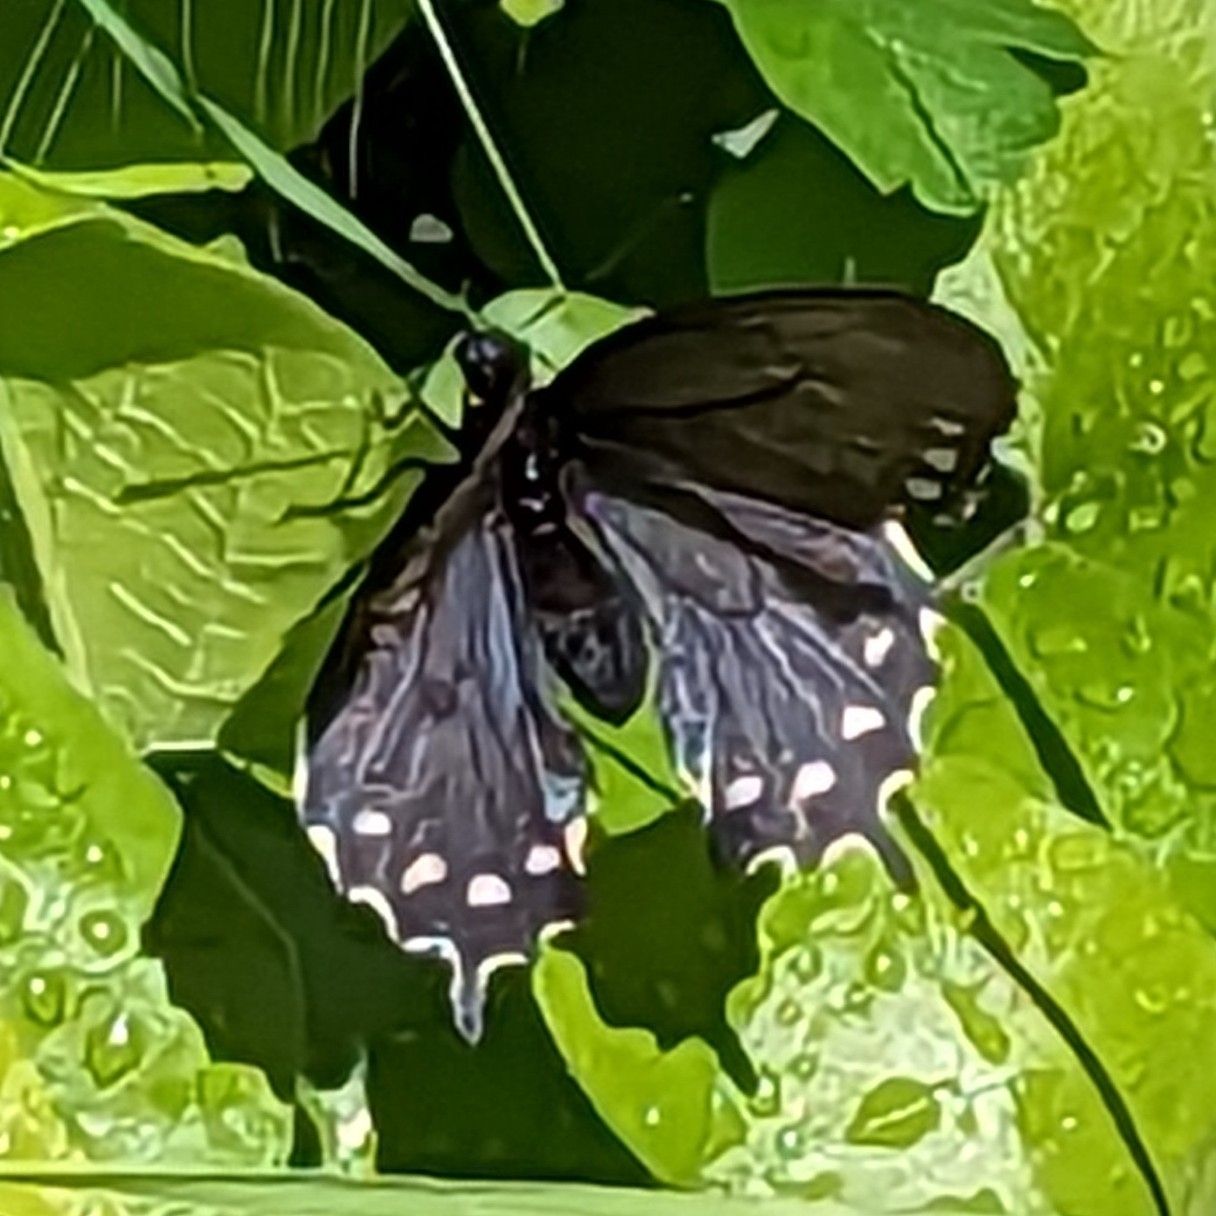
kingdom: Animalia
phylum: Arthropoda
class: Insecta
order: Lepidoptera
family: Papilionidae
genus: Battus
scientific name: Battus philenor
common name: Pipevine swallowtail
